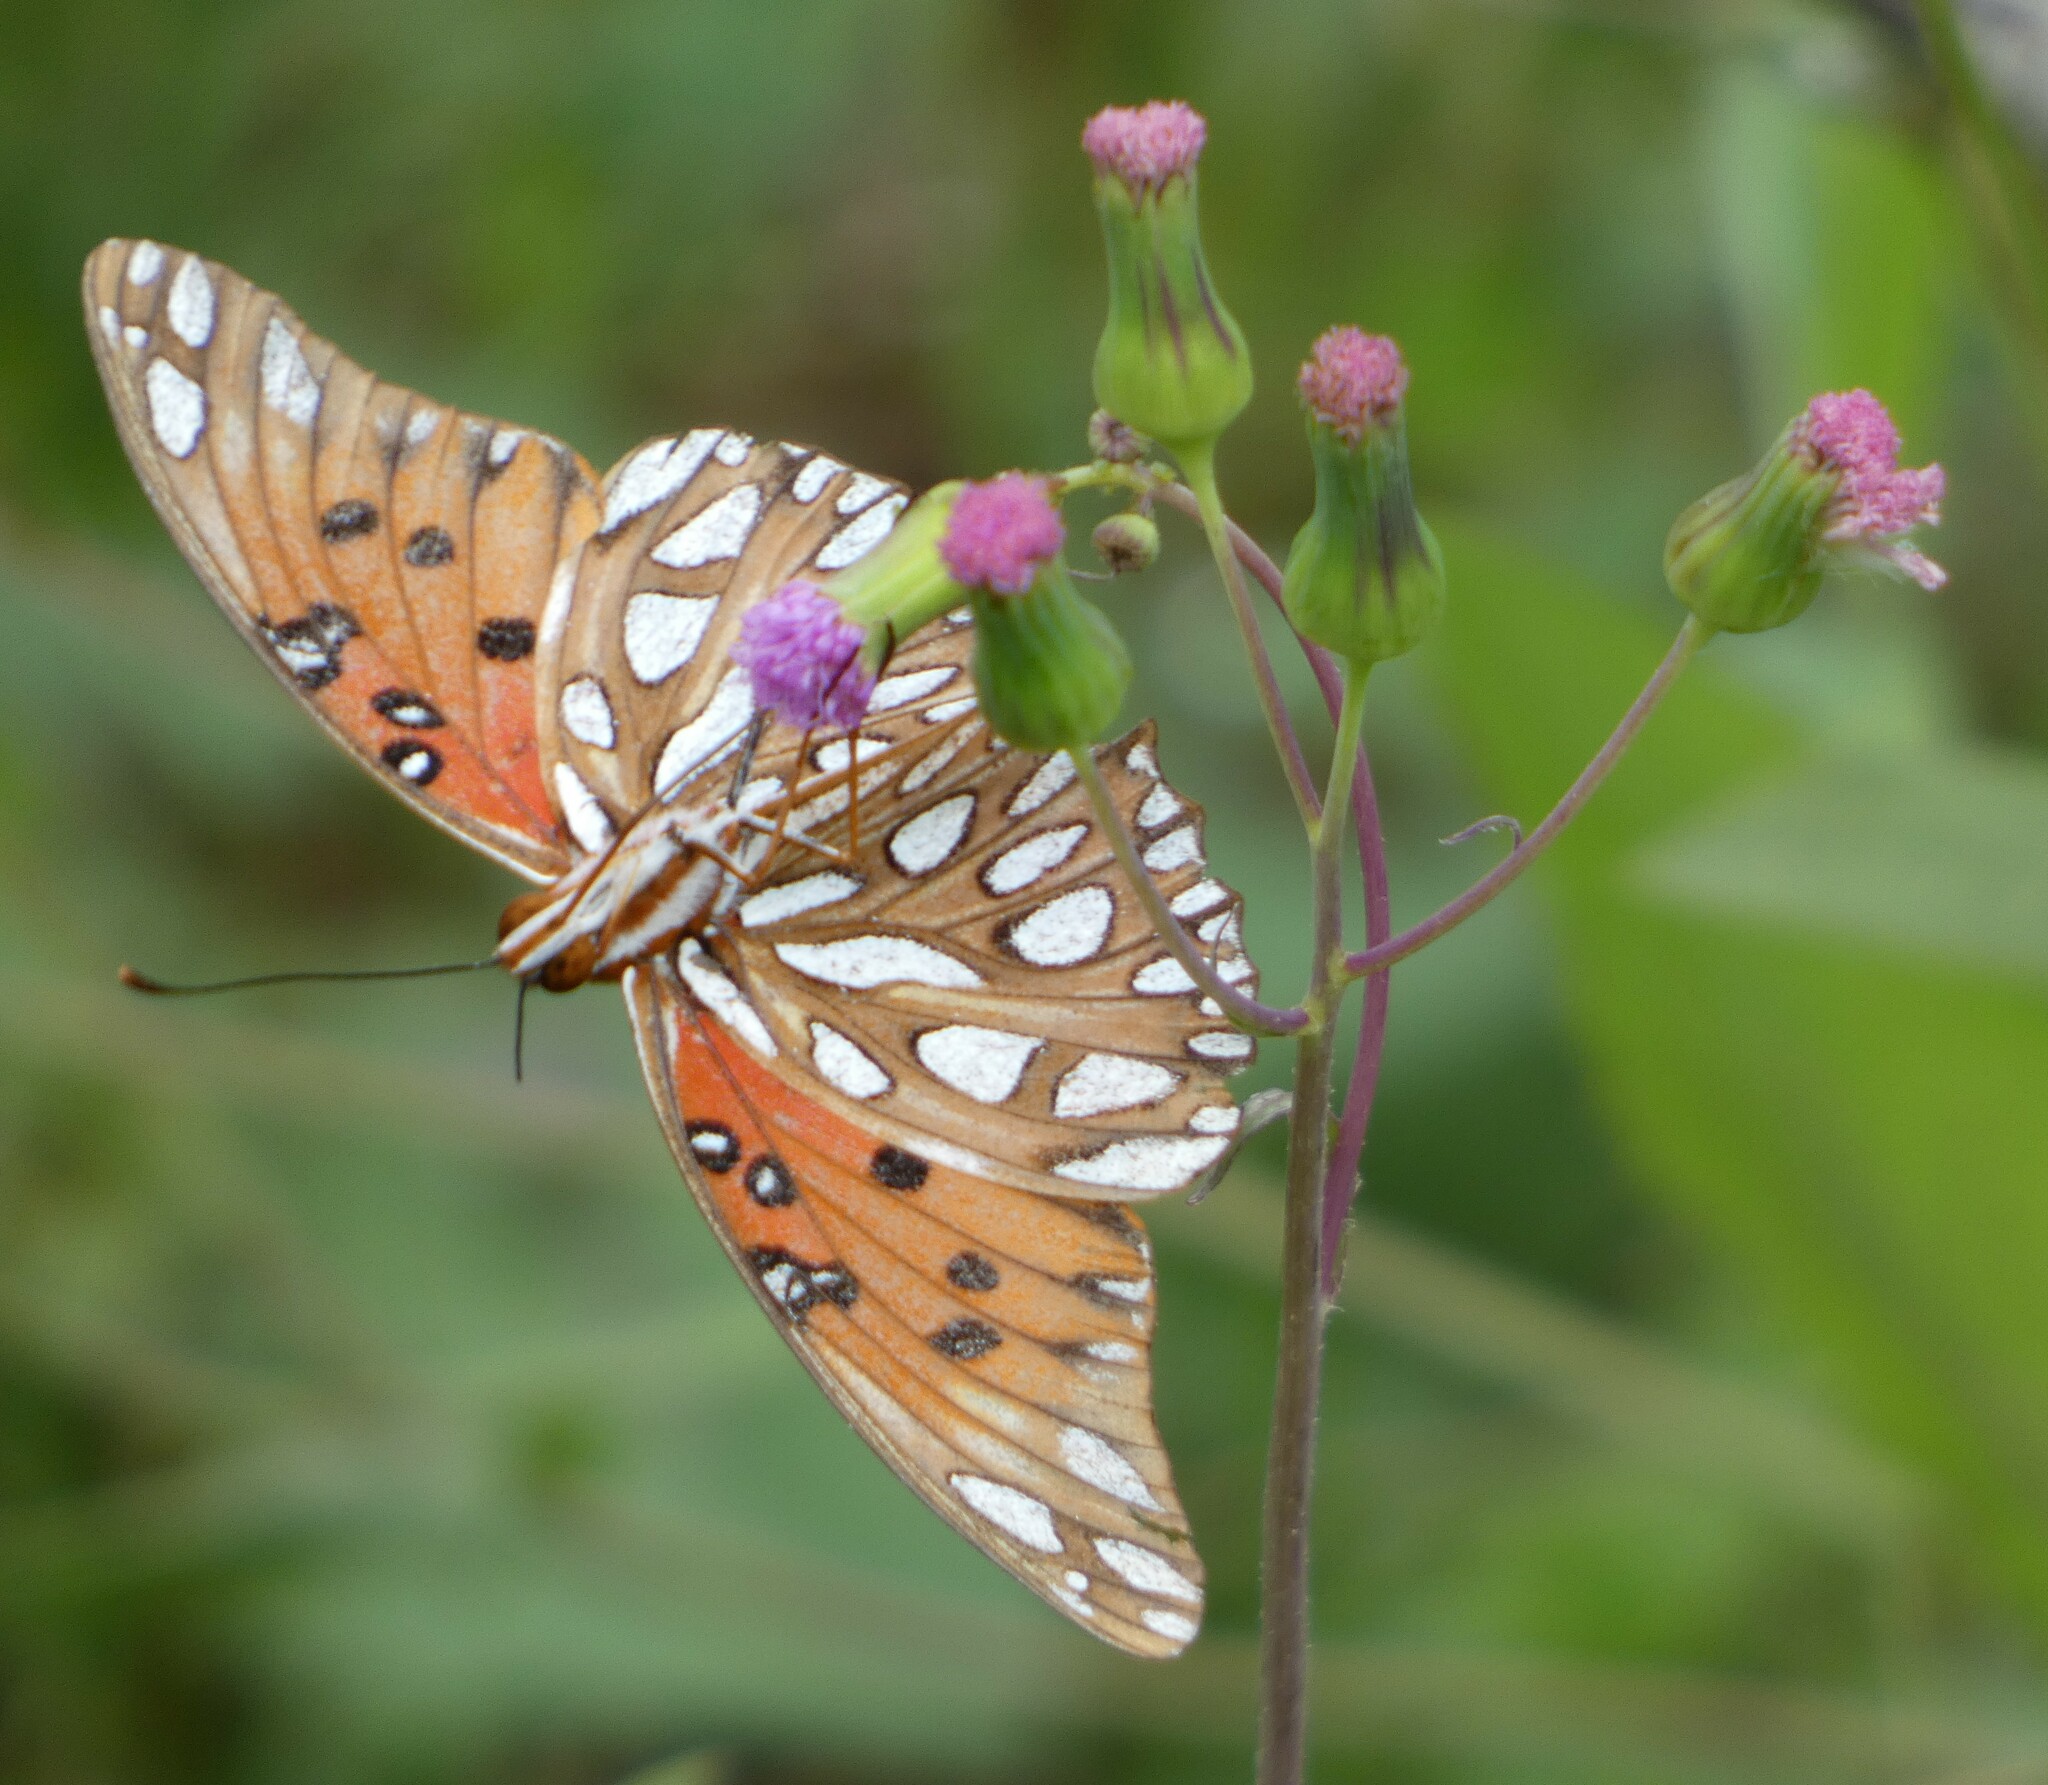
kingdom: Animalia
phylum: Arthropoda
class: Insecta
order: Lepidoptera
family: Nymphalidae
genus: Dione
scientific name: Dione vanillae
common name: Gulf fritillary
